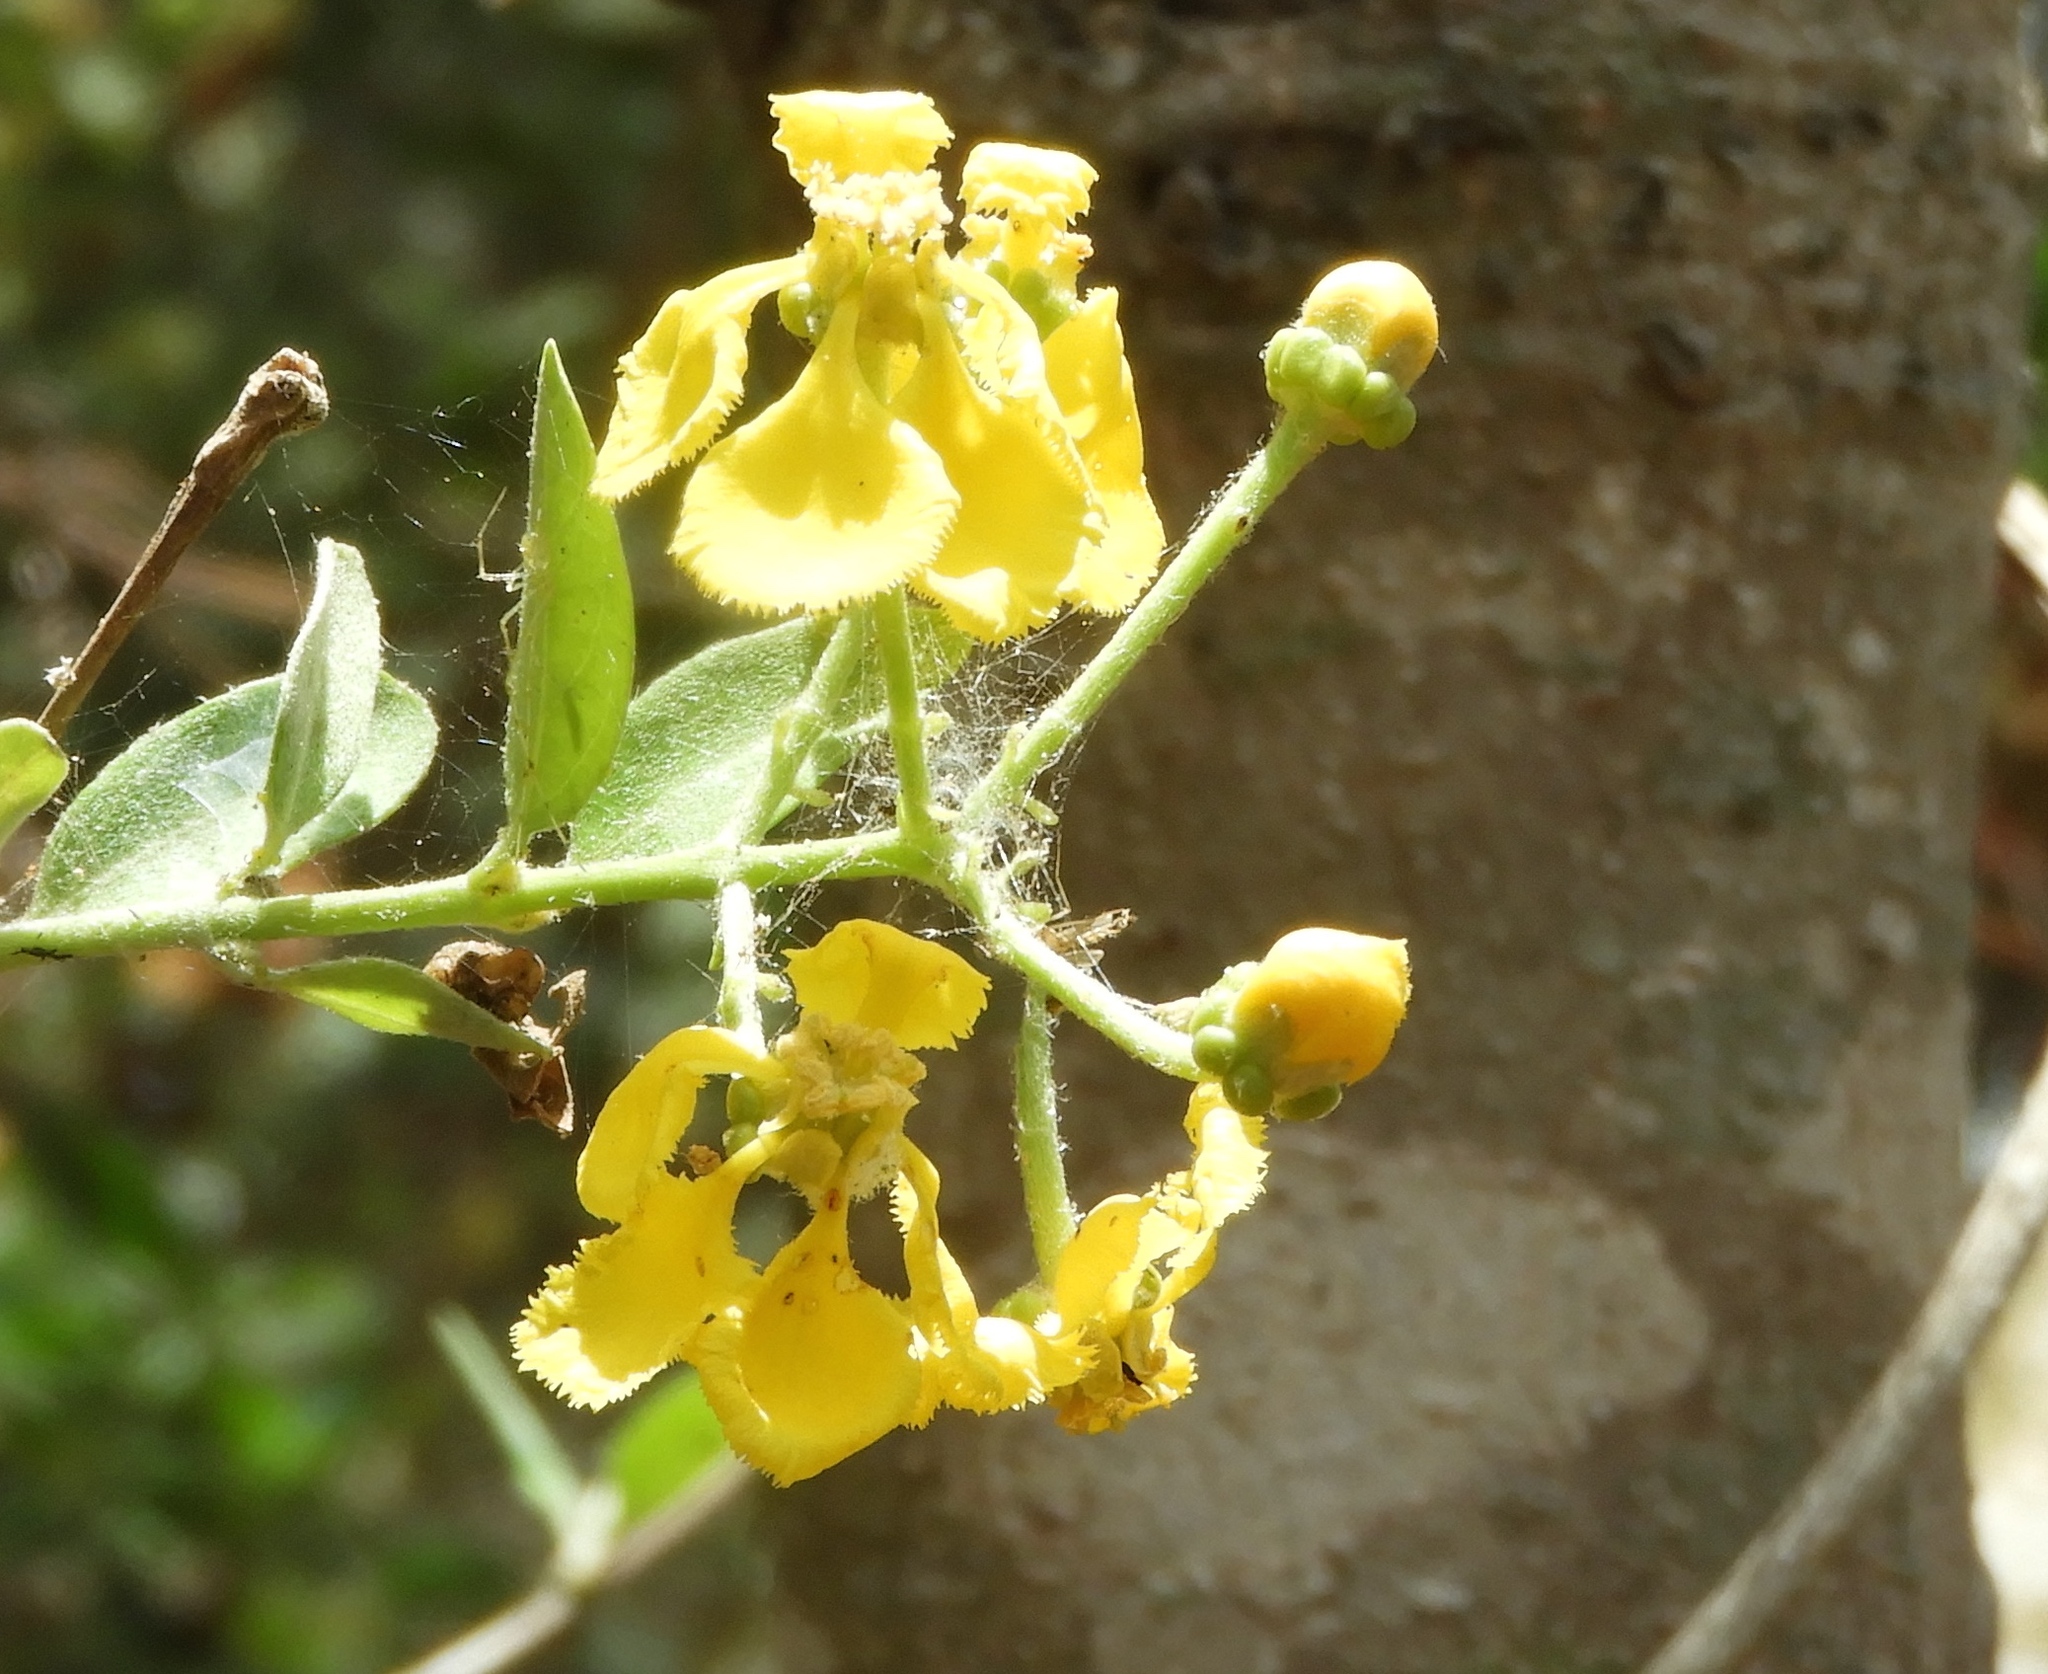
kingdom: Plantae
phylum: Tracheophyta
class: Magnoliopsida
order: Malpighiales
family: Malpighiaceae
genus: Callaeum
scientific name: Callaeum macropterum
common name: Mexican butterfly-vine
